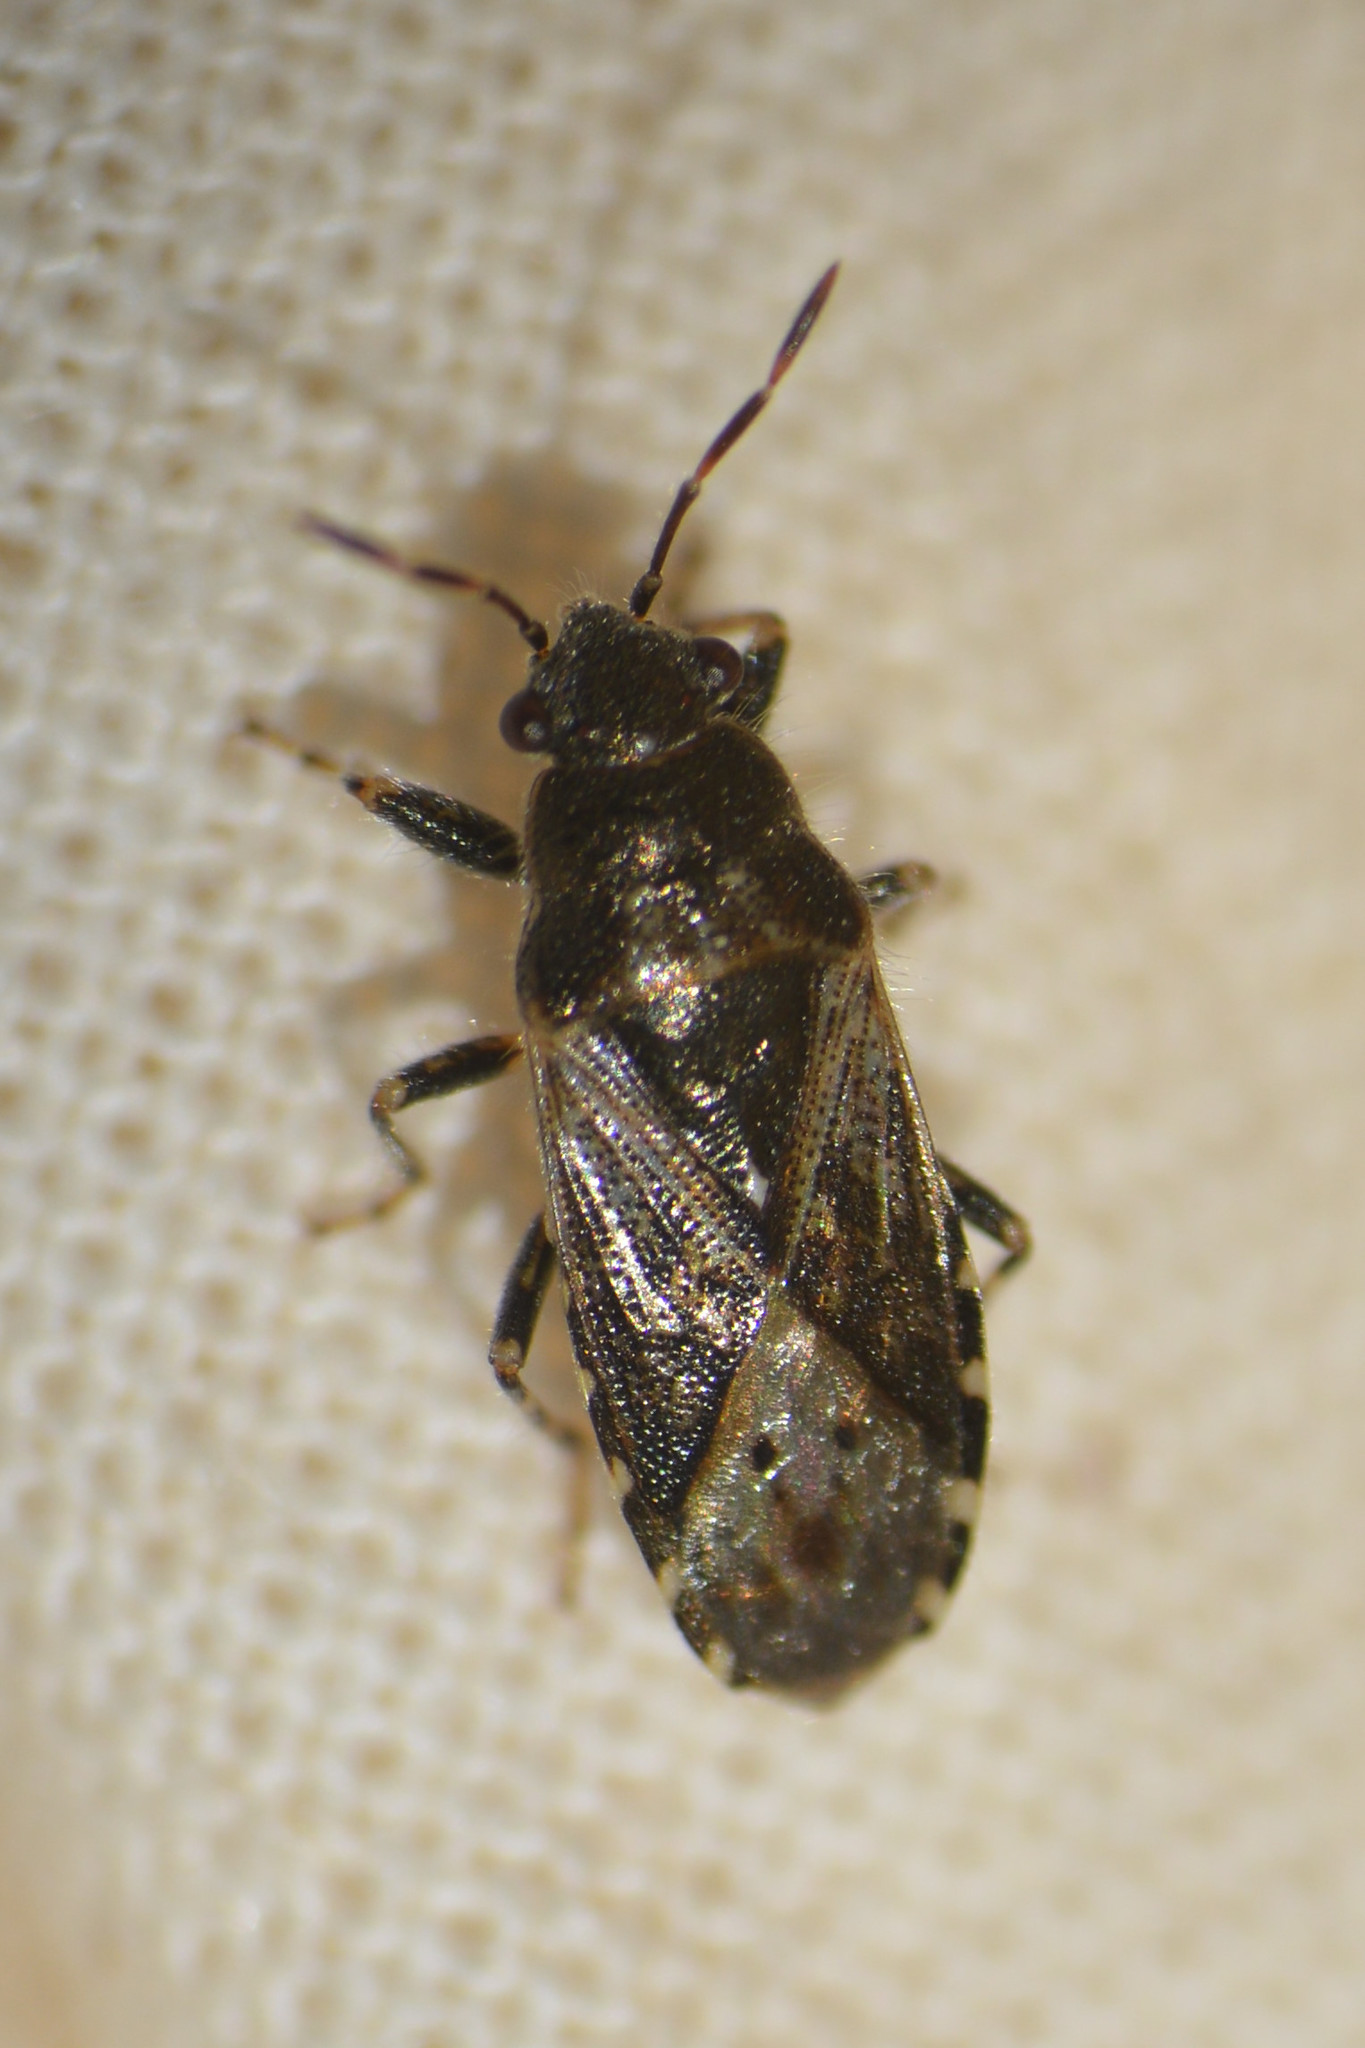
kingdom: Animalia
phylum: Arthropoda
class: Insecta
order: Hemiptera
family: Heterogastridae
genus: Heterogaster
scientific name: Heterogaster urticae
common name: Seed bug
